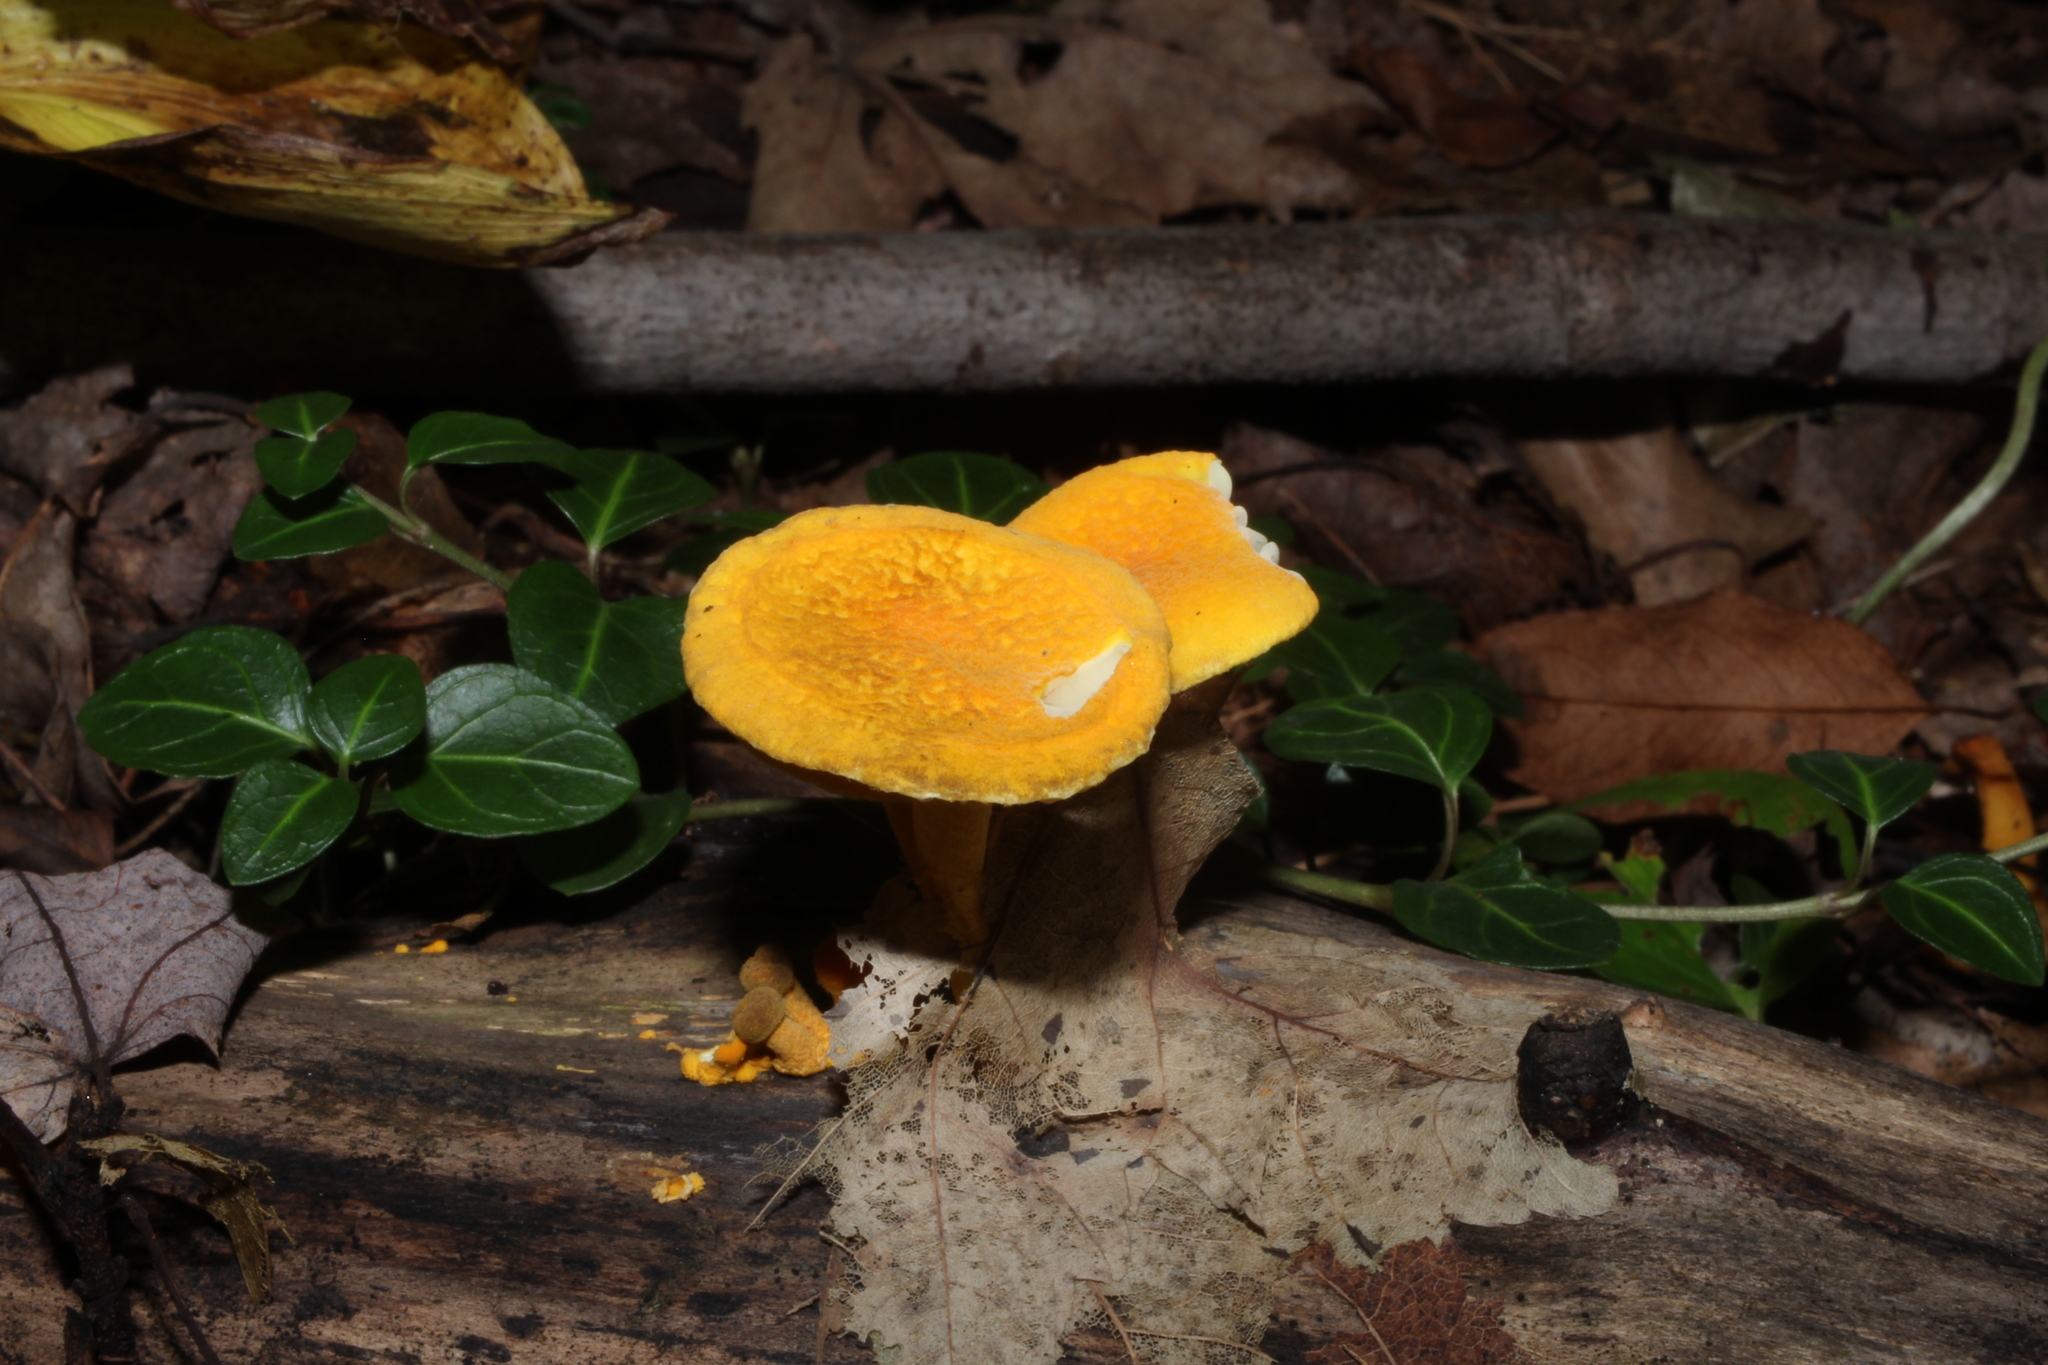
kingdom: Fungi
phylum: Basidiomycota
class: Agaricomycetes
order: Agaricales
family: Physalacriaceae
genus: Cyptotrama
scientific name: Cyptotrama chrysopepla
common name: Golden coincap
